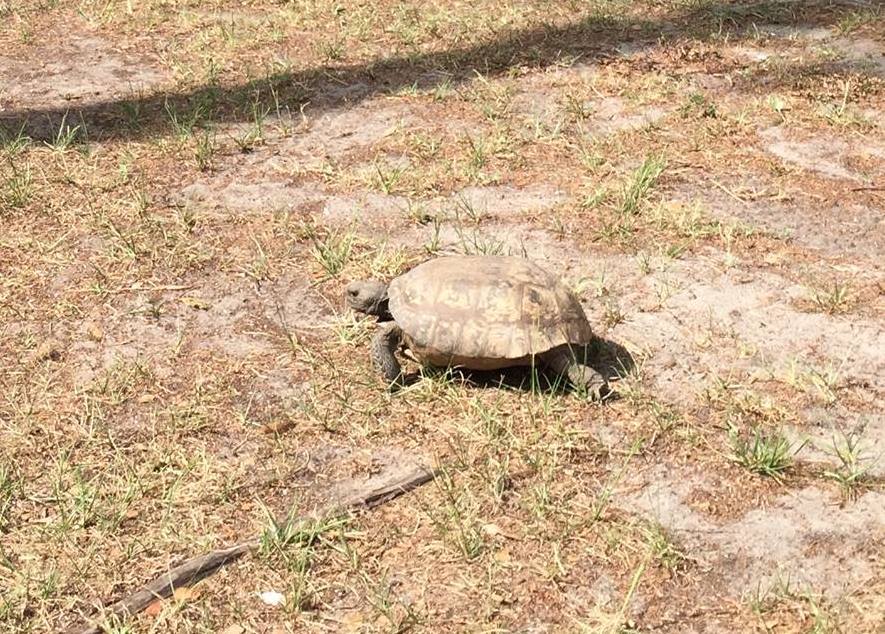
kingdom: Animalia
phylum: Chordata
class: Testudines
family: Testudinidae
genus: Gopherus
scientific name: Gopherus polyphemus
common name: Florida gopher tortoise
